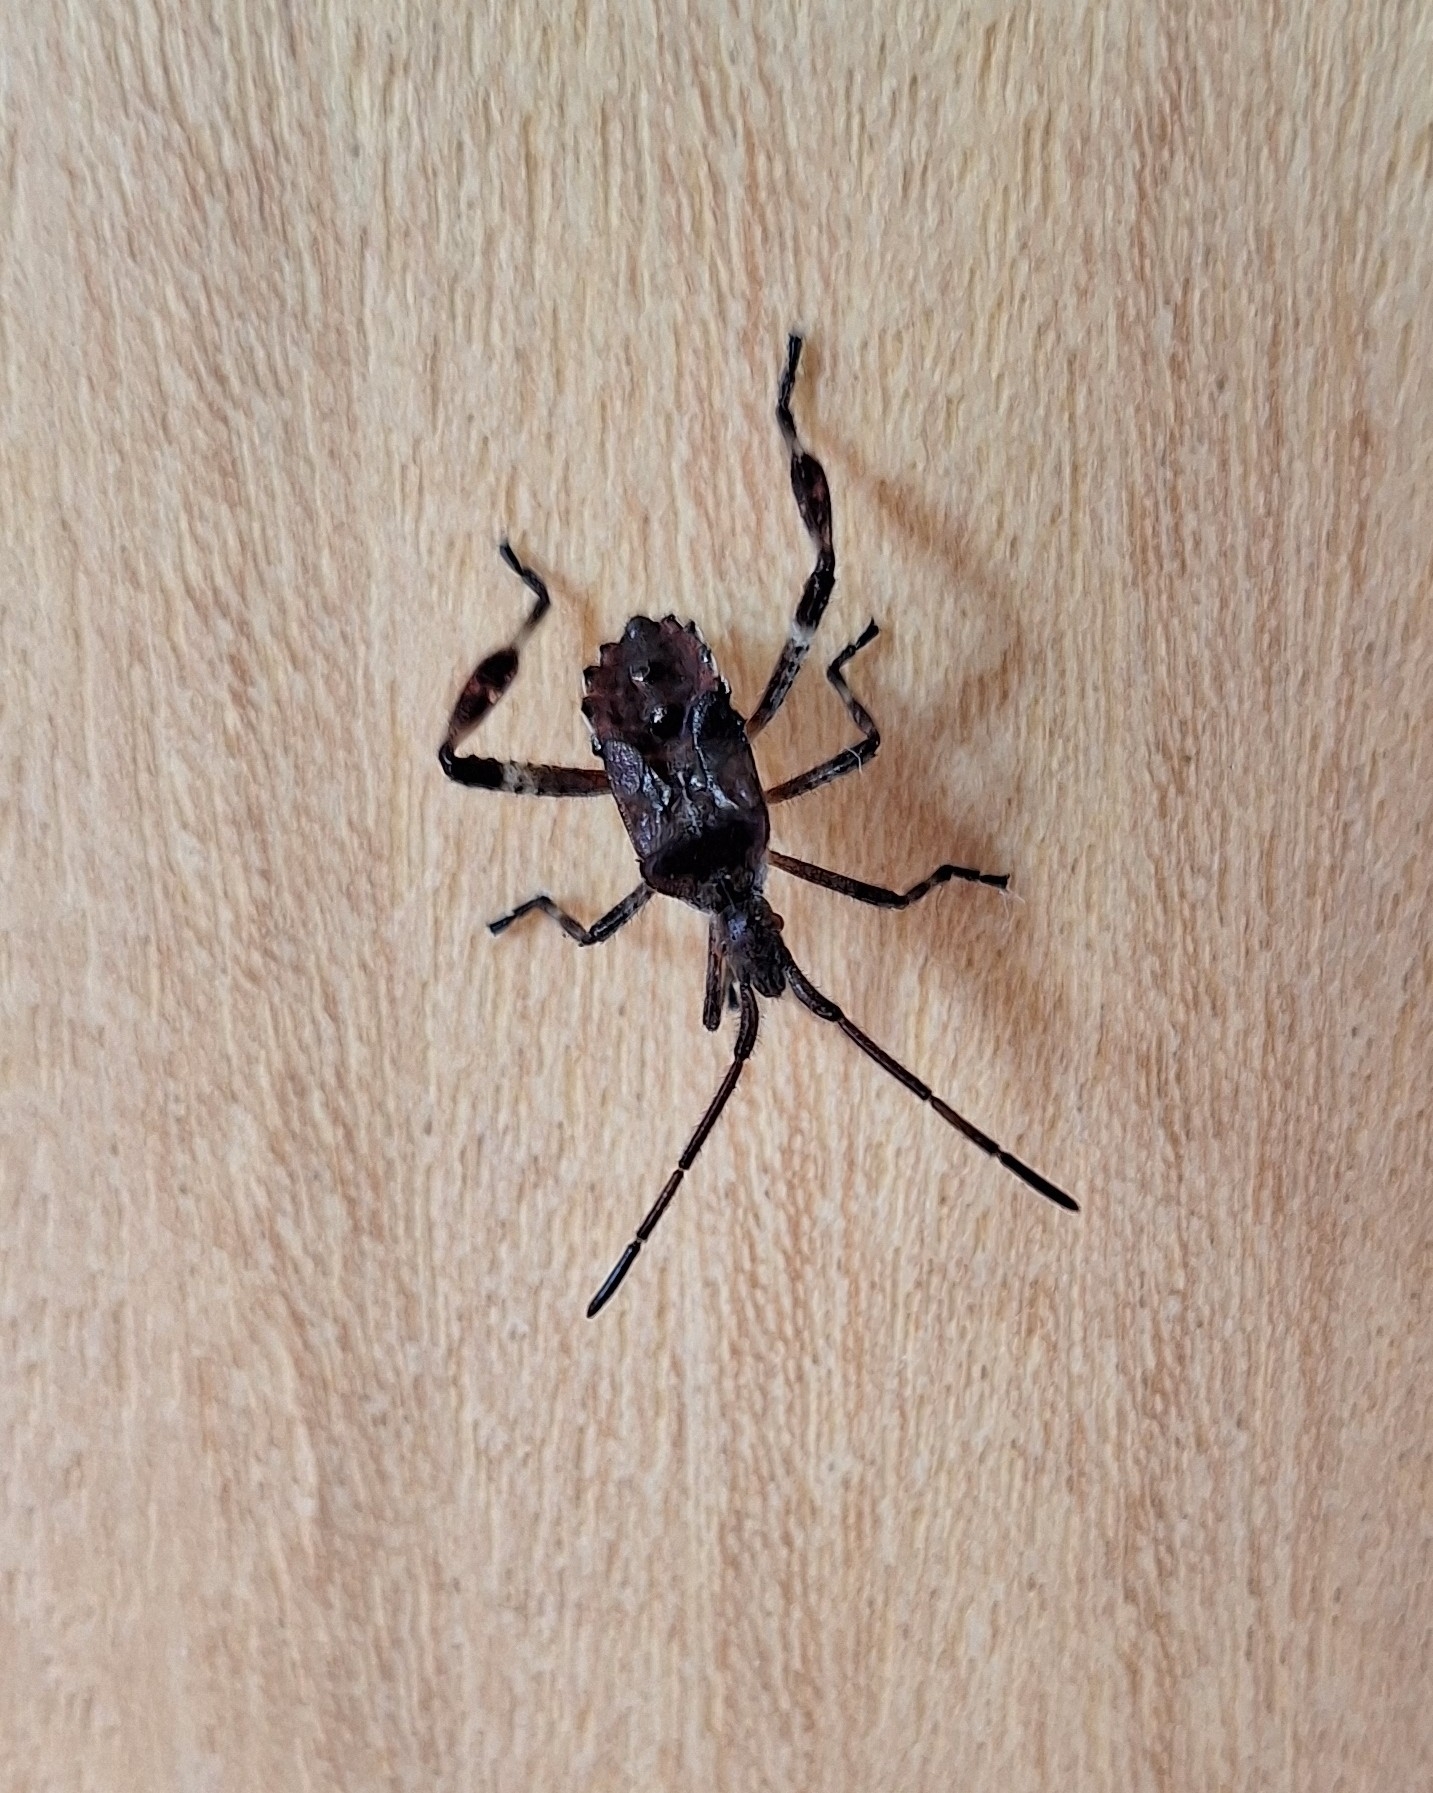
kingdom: Animalia
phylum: Arthropoda
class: Insecta
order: Hemiptera
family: Coreidae
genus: Leptoglossus
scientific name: Leptoglossus occidentalis
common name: Western conifer-seed bug
